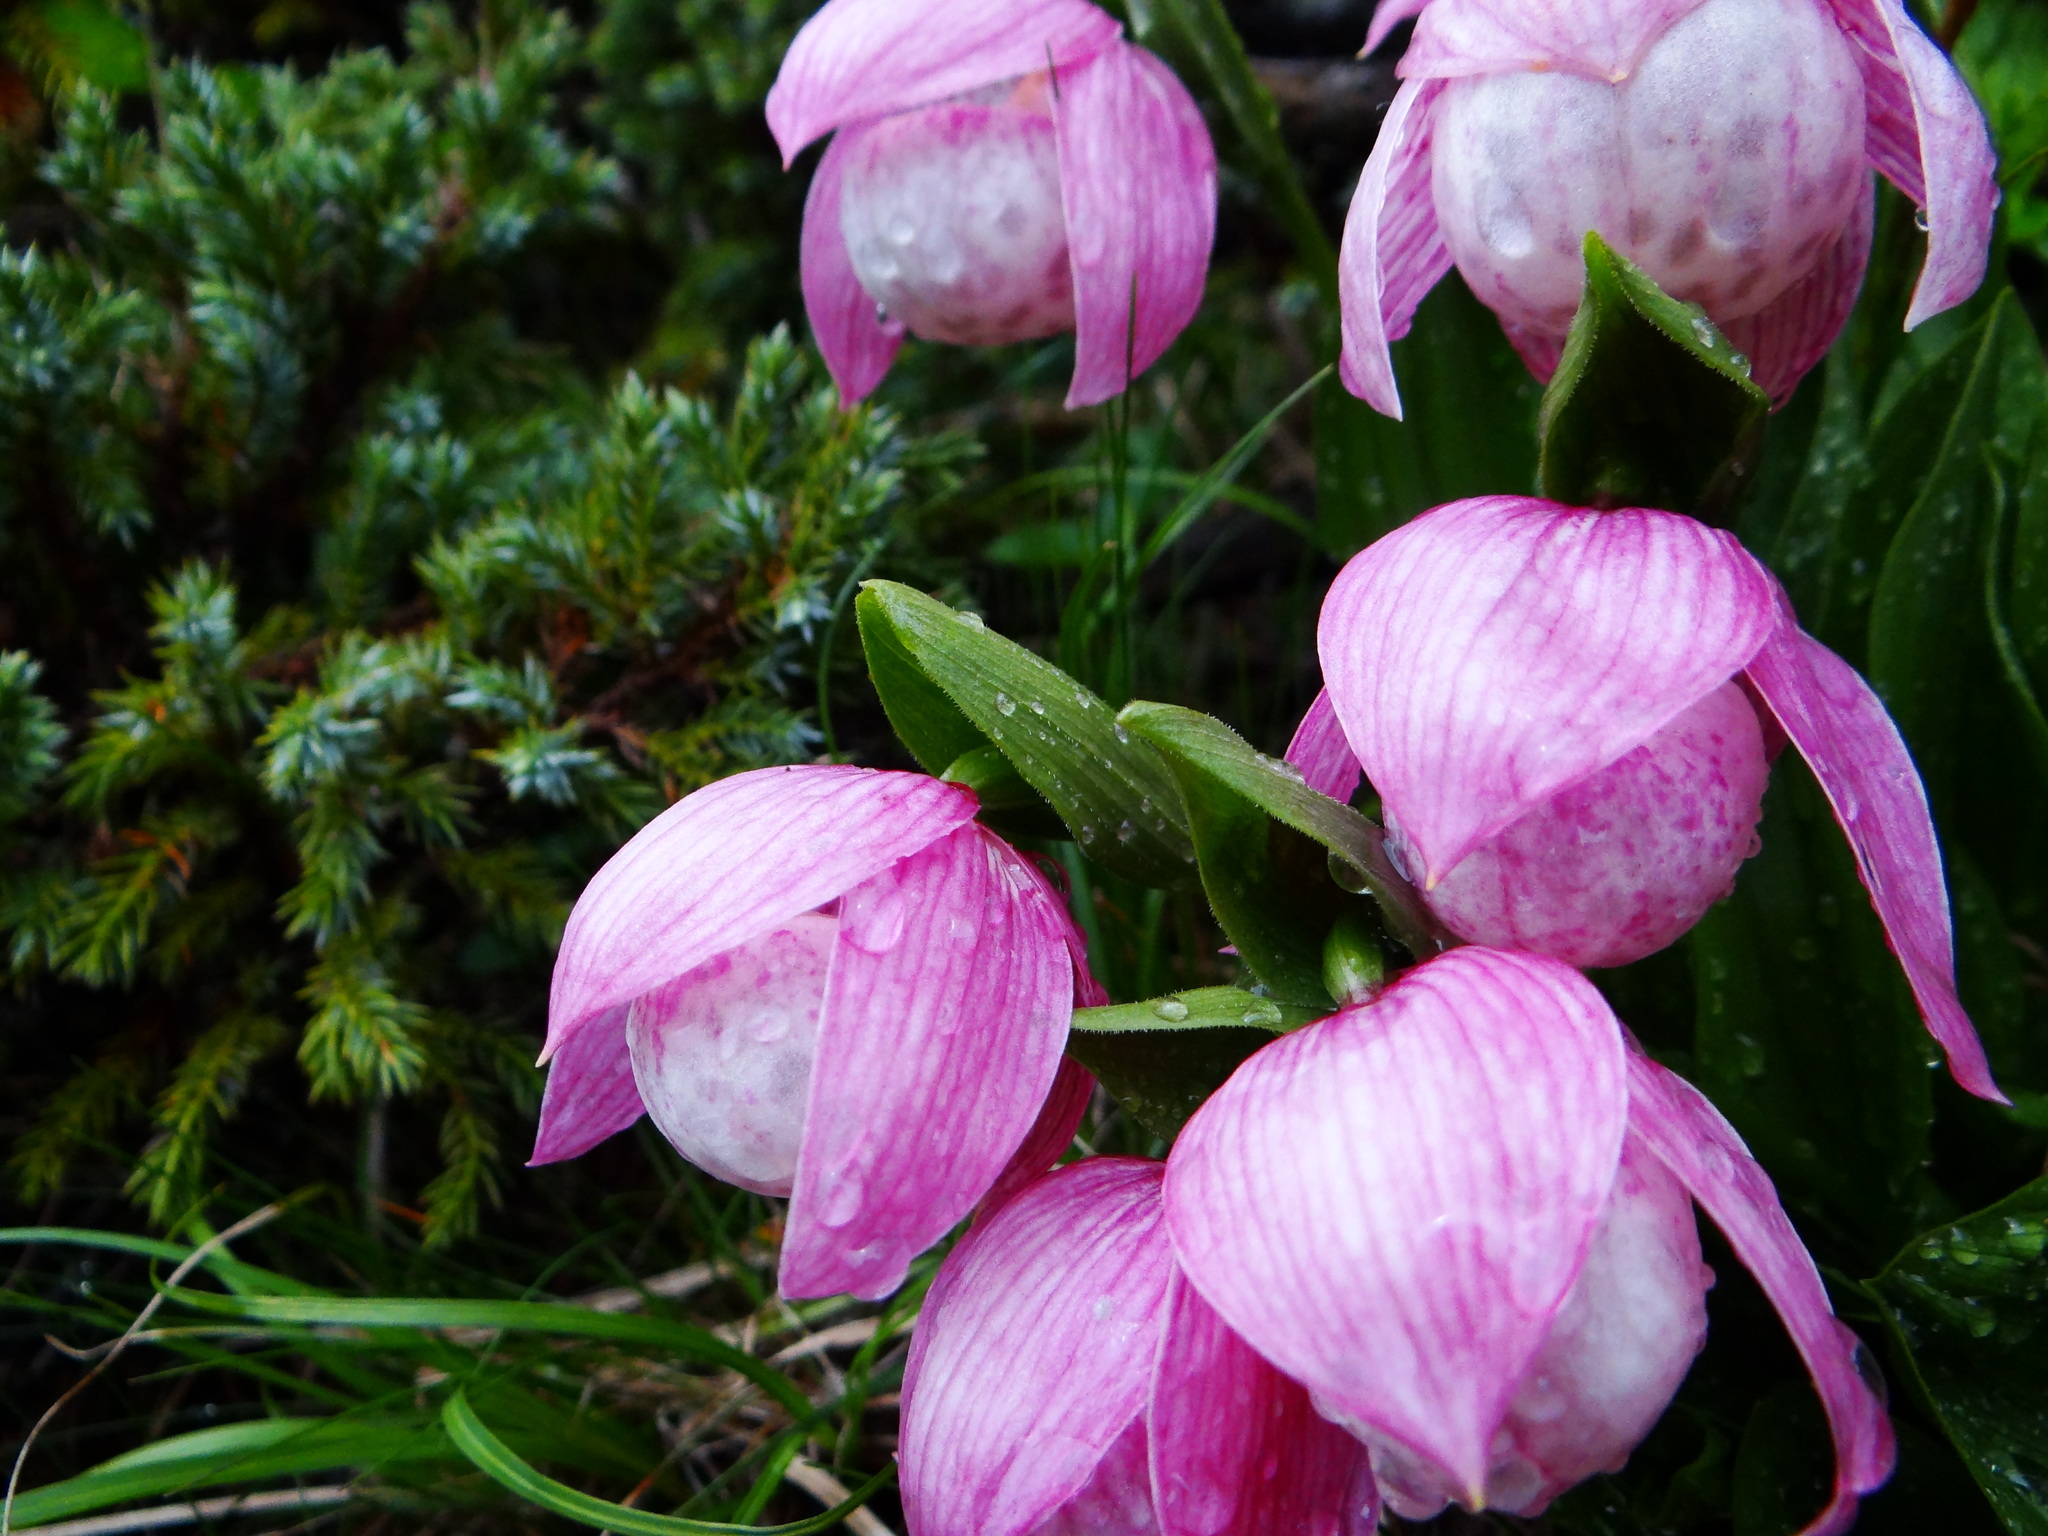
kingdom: Plantae
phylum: Tracheophyta
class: Liliopsida
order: Asparagales
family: Orchidaceae
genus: Cypripedium
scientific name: Cypripedium taiwanalpinum
